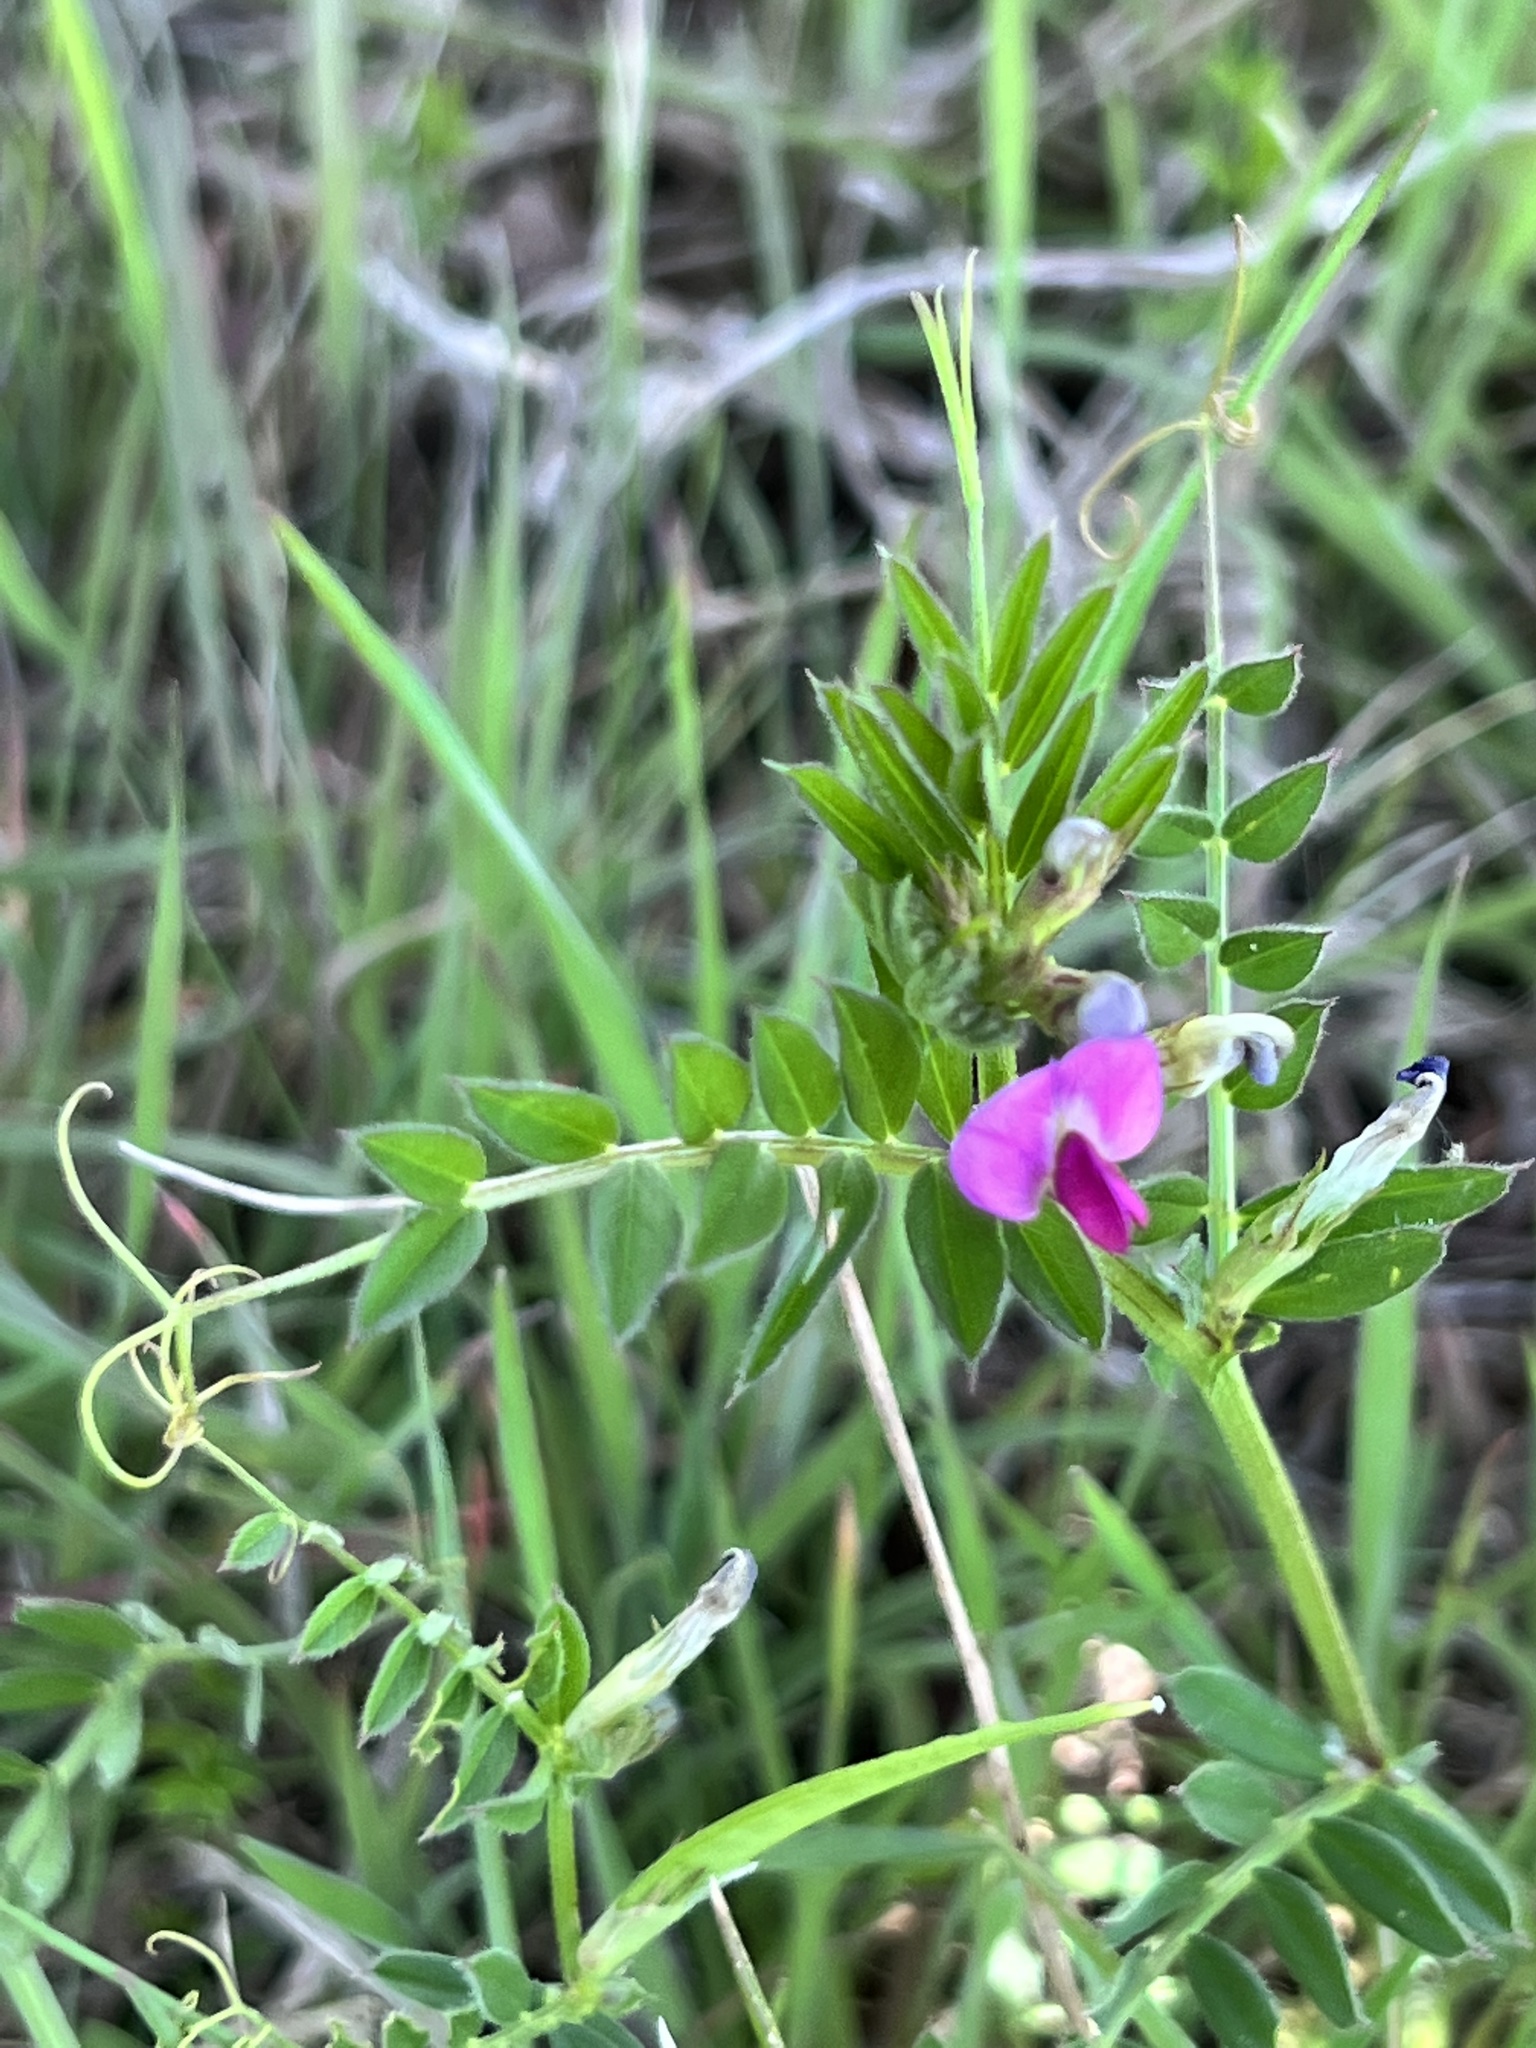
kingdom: Plantae
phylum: Tracheophyta
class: Magnoliopsida
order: Fabales
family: Fabaceae
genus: Vicia
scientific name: Vicia sativa
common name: Garden vetch
